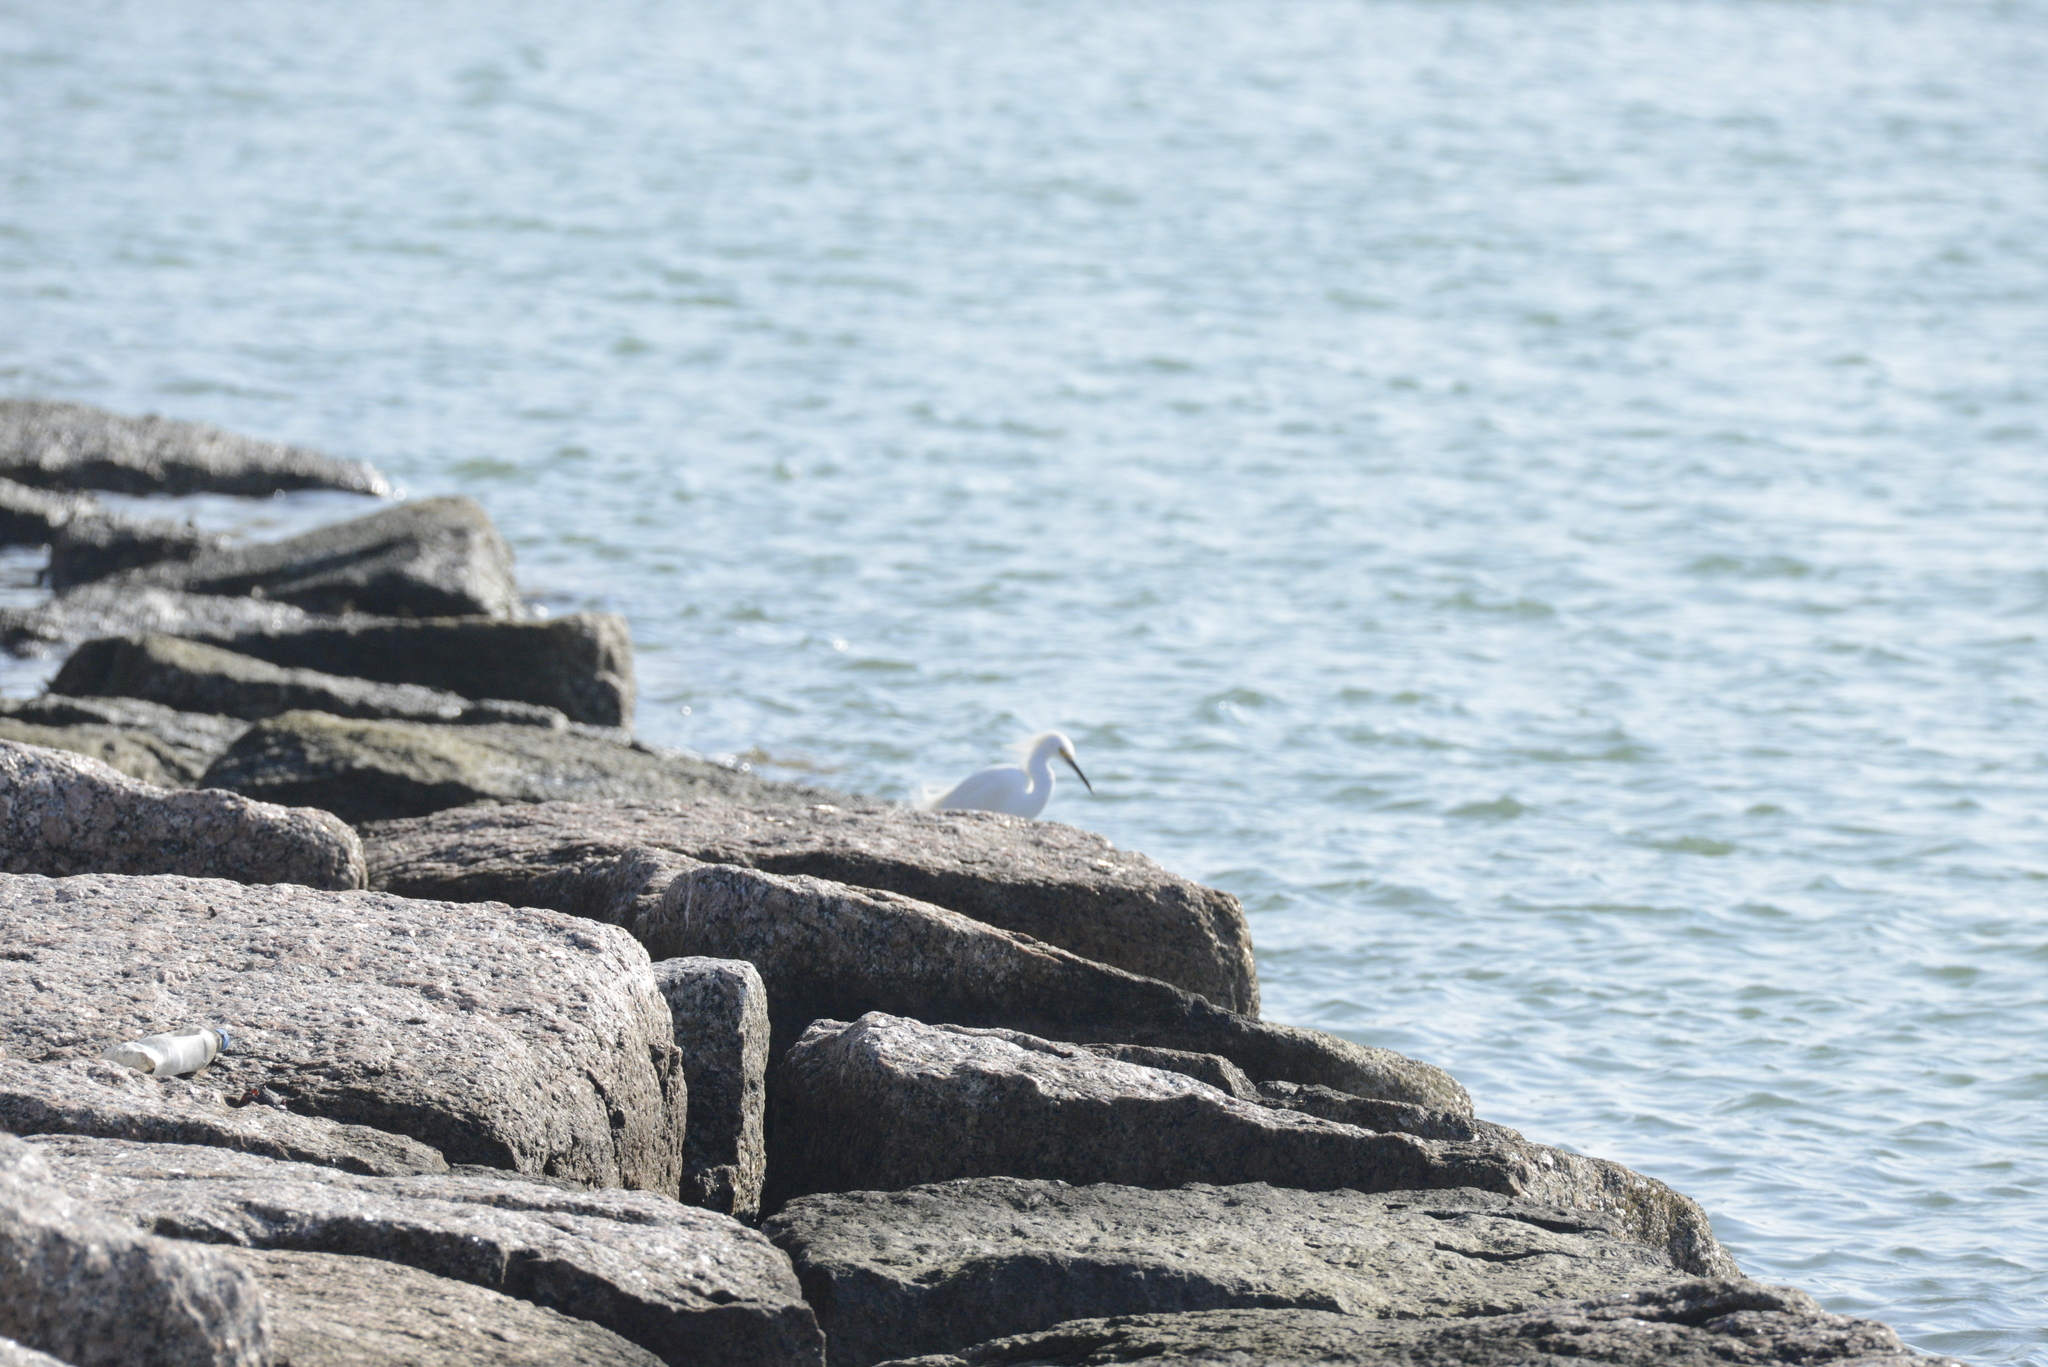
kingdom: Animalia
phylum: Chordata
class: Aves
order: Pelecaniformes
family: Ardeidae
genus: Egretta
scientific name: Egretta thula
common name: Snowy egret
